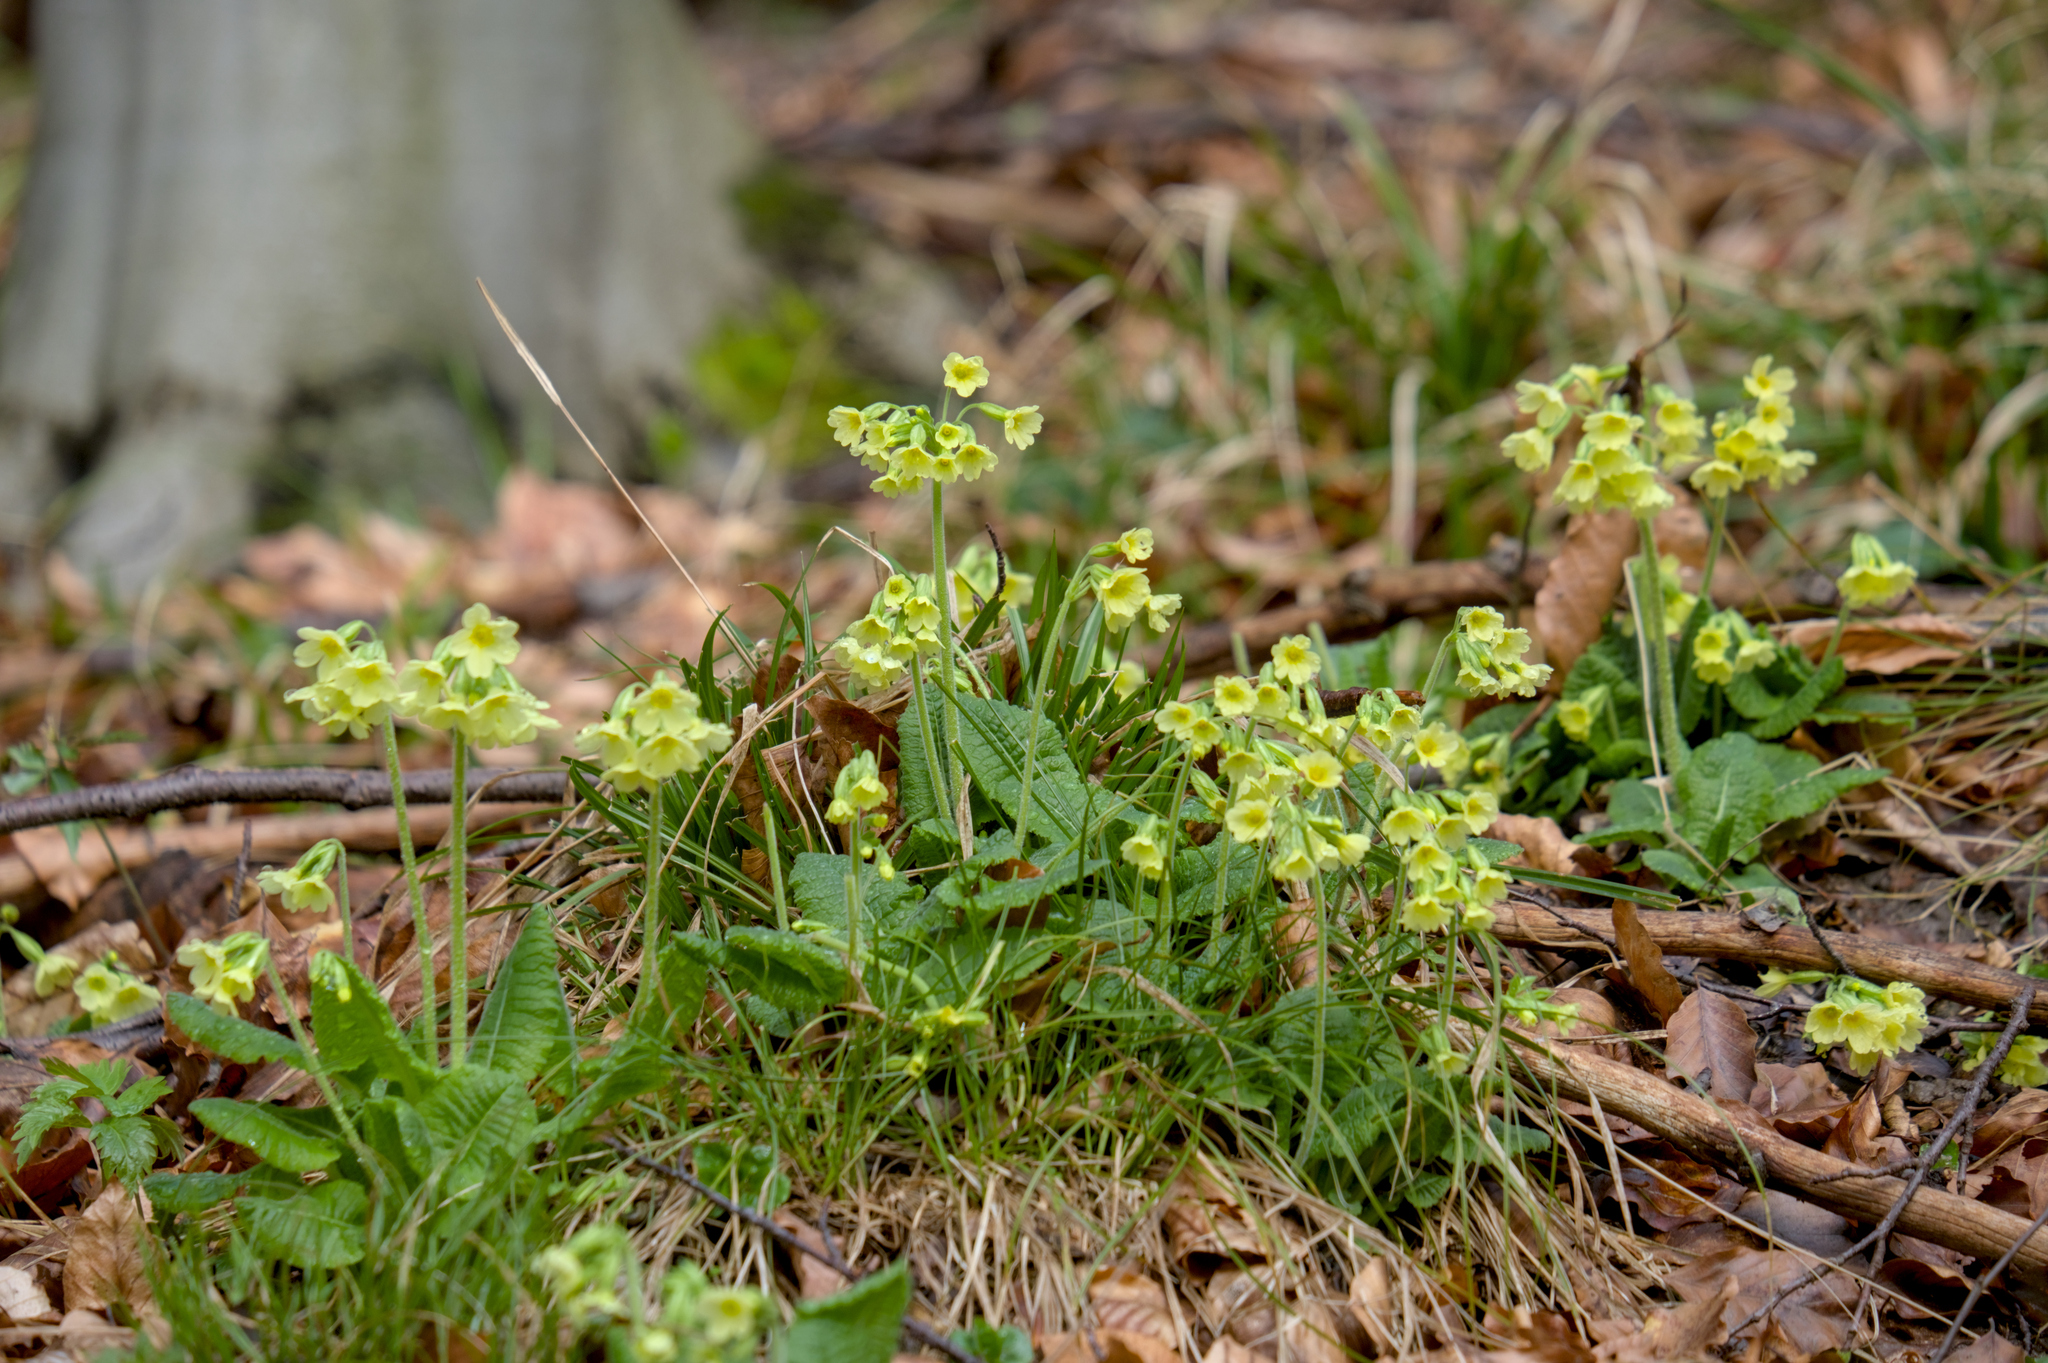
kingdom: Plantae
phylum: Tracheophyta
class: Magnoliopsida
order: Ericales
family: Primulaceae
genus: Primula
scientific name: Primula elatior
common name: Oxlip
